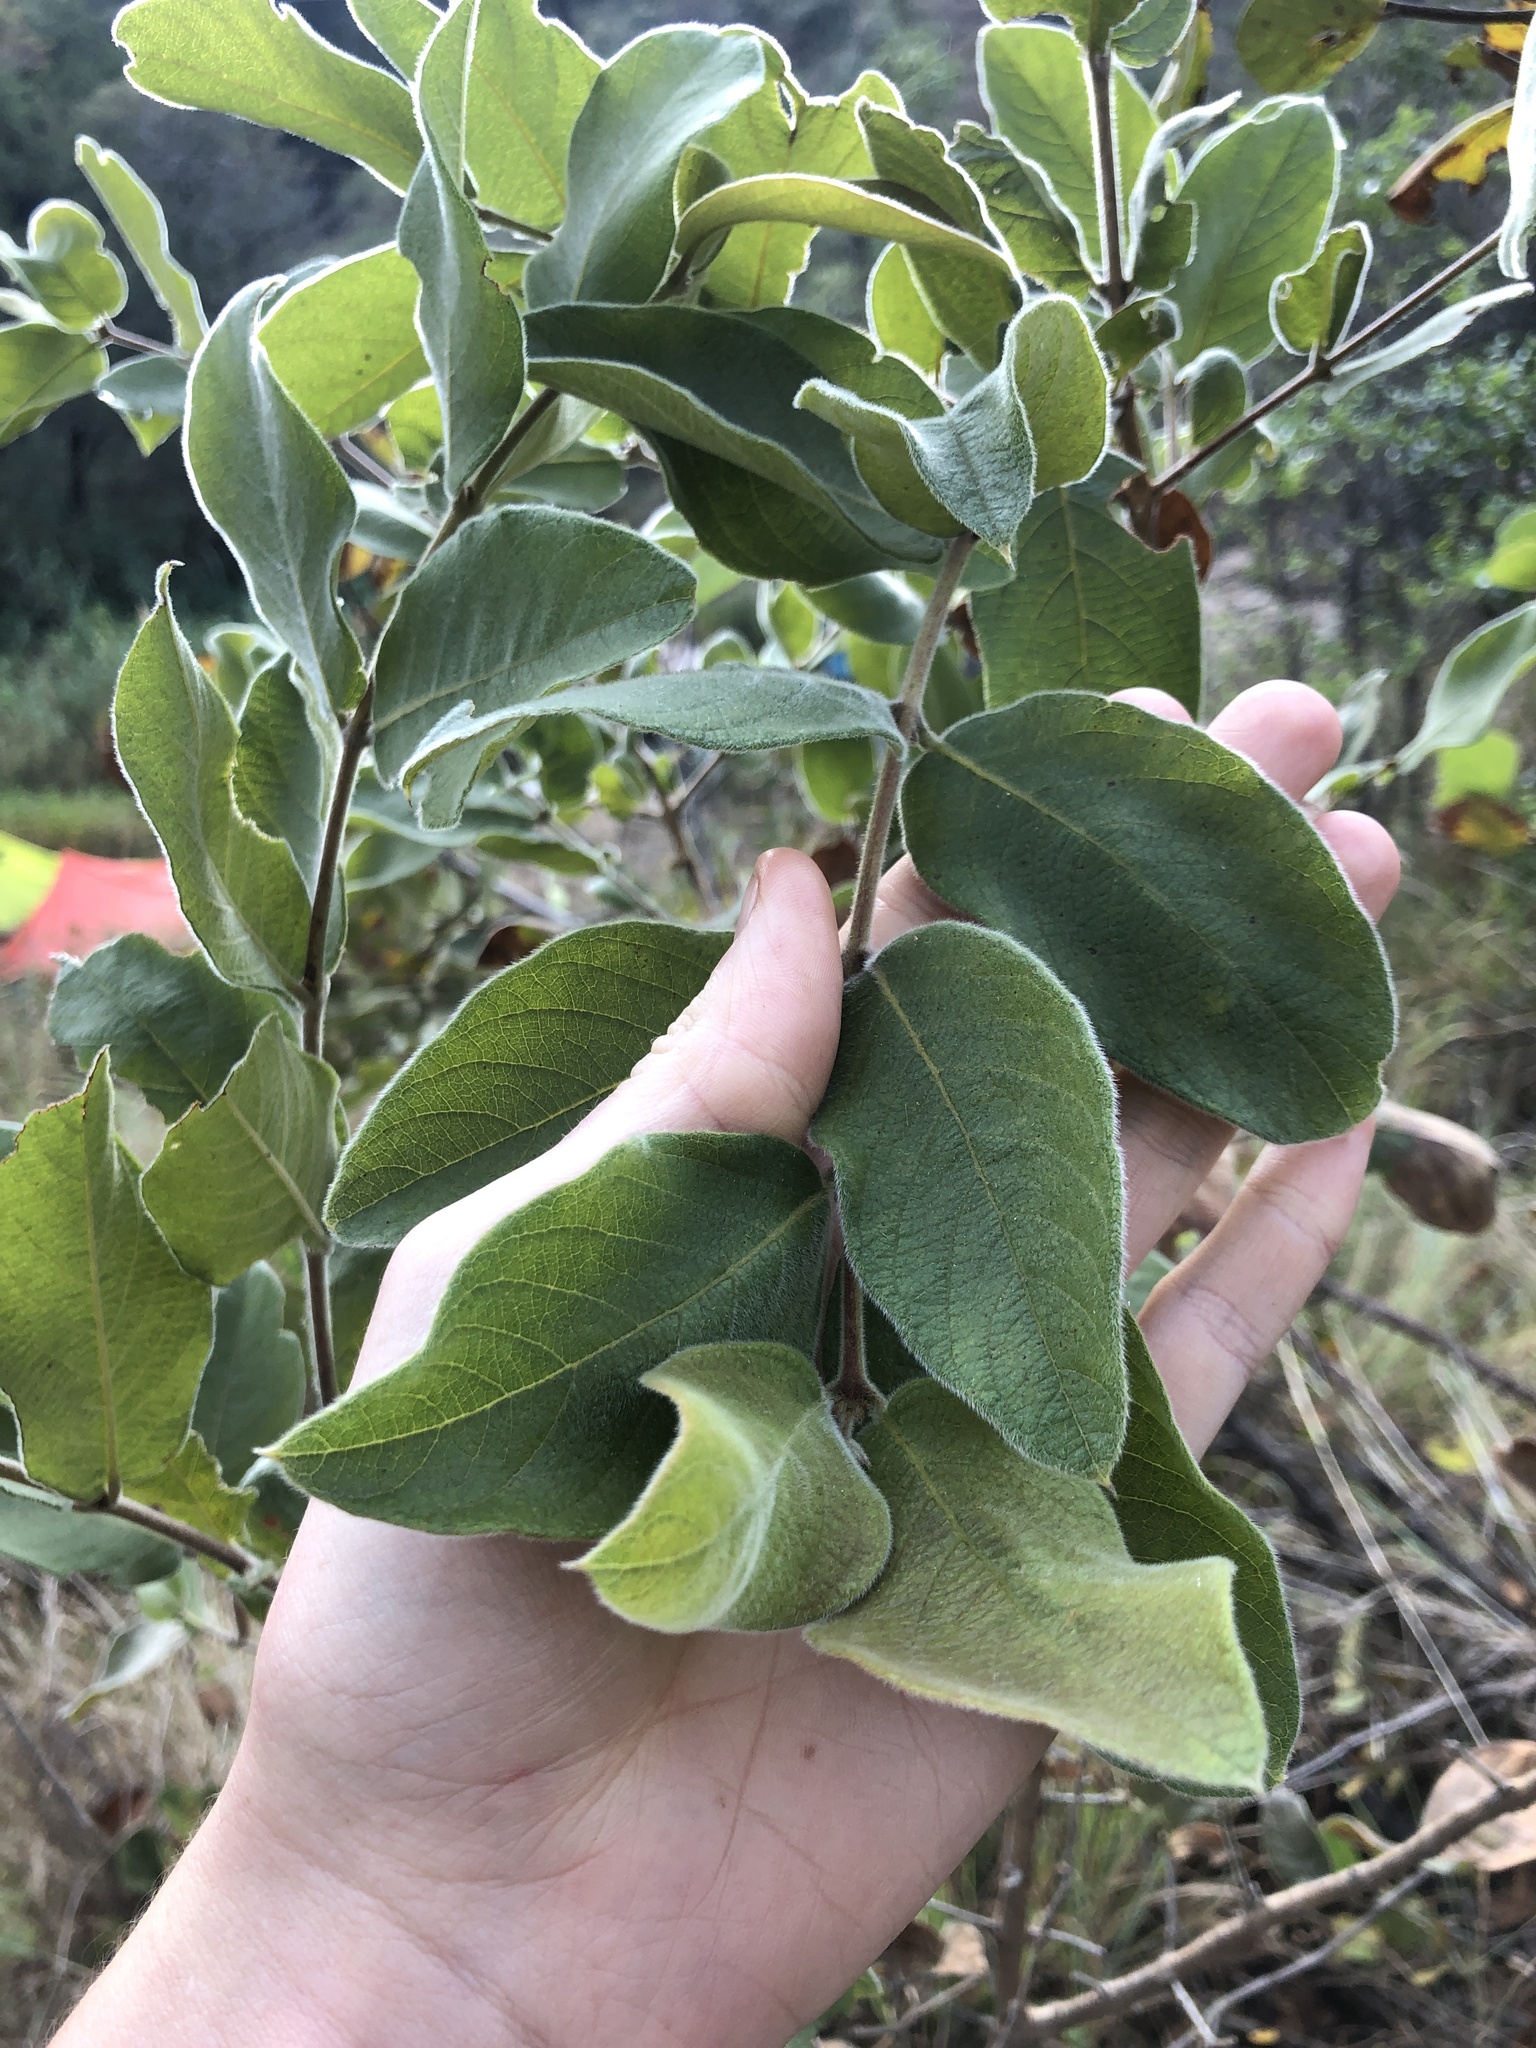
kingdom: Plantae
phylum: Tracheophyta
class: Magnoliopsida
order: Myrtales
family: Combretaceae
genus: Combretum
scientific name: Combretum molle
